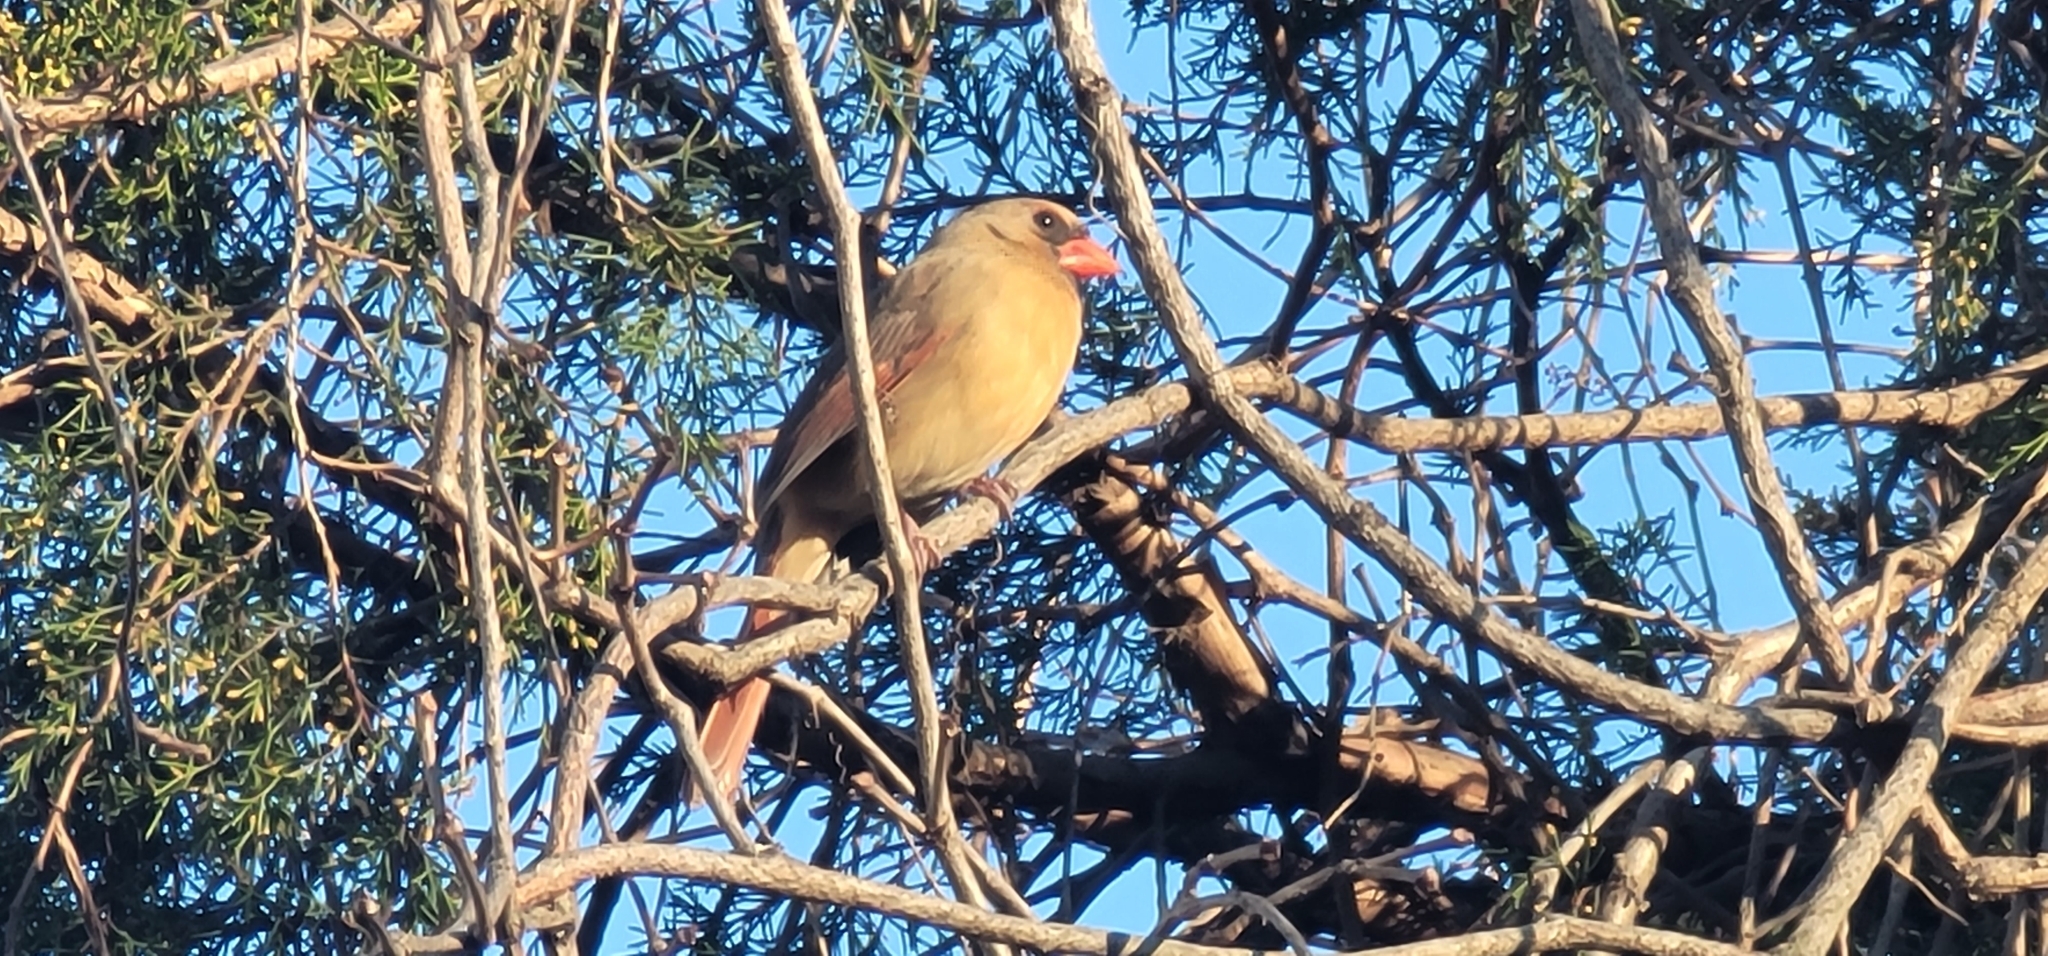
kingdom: Animalia
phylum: Chordata
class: Aves
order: Passeriformes
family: Cardinalidae
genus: Cardinalis
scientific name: Cardinalis cardinalis
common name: Northern cardinal
